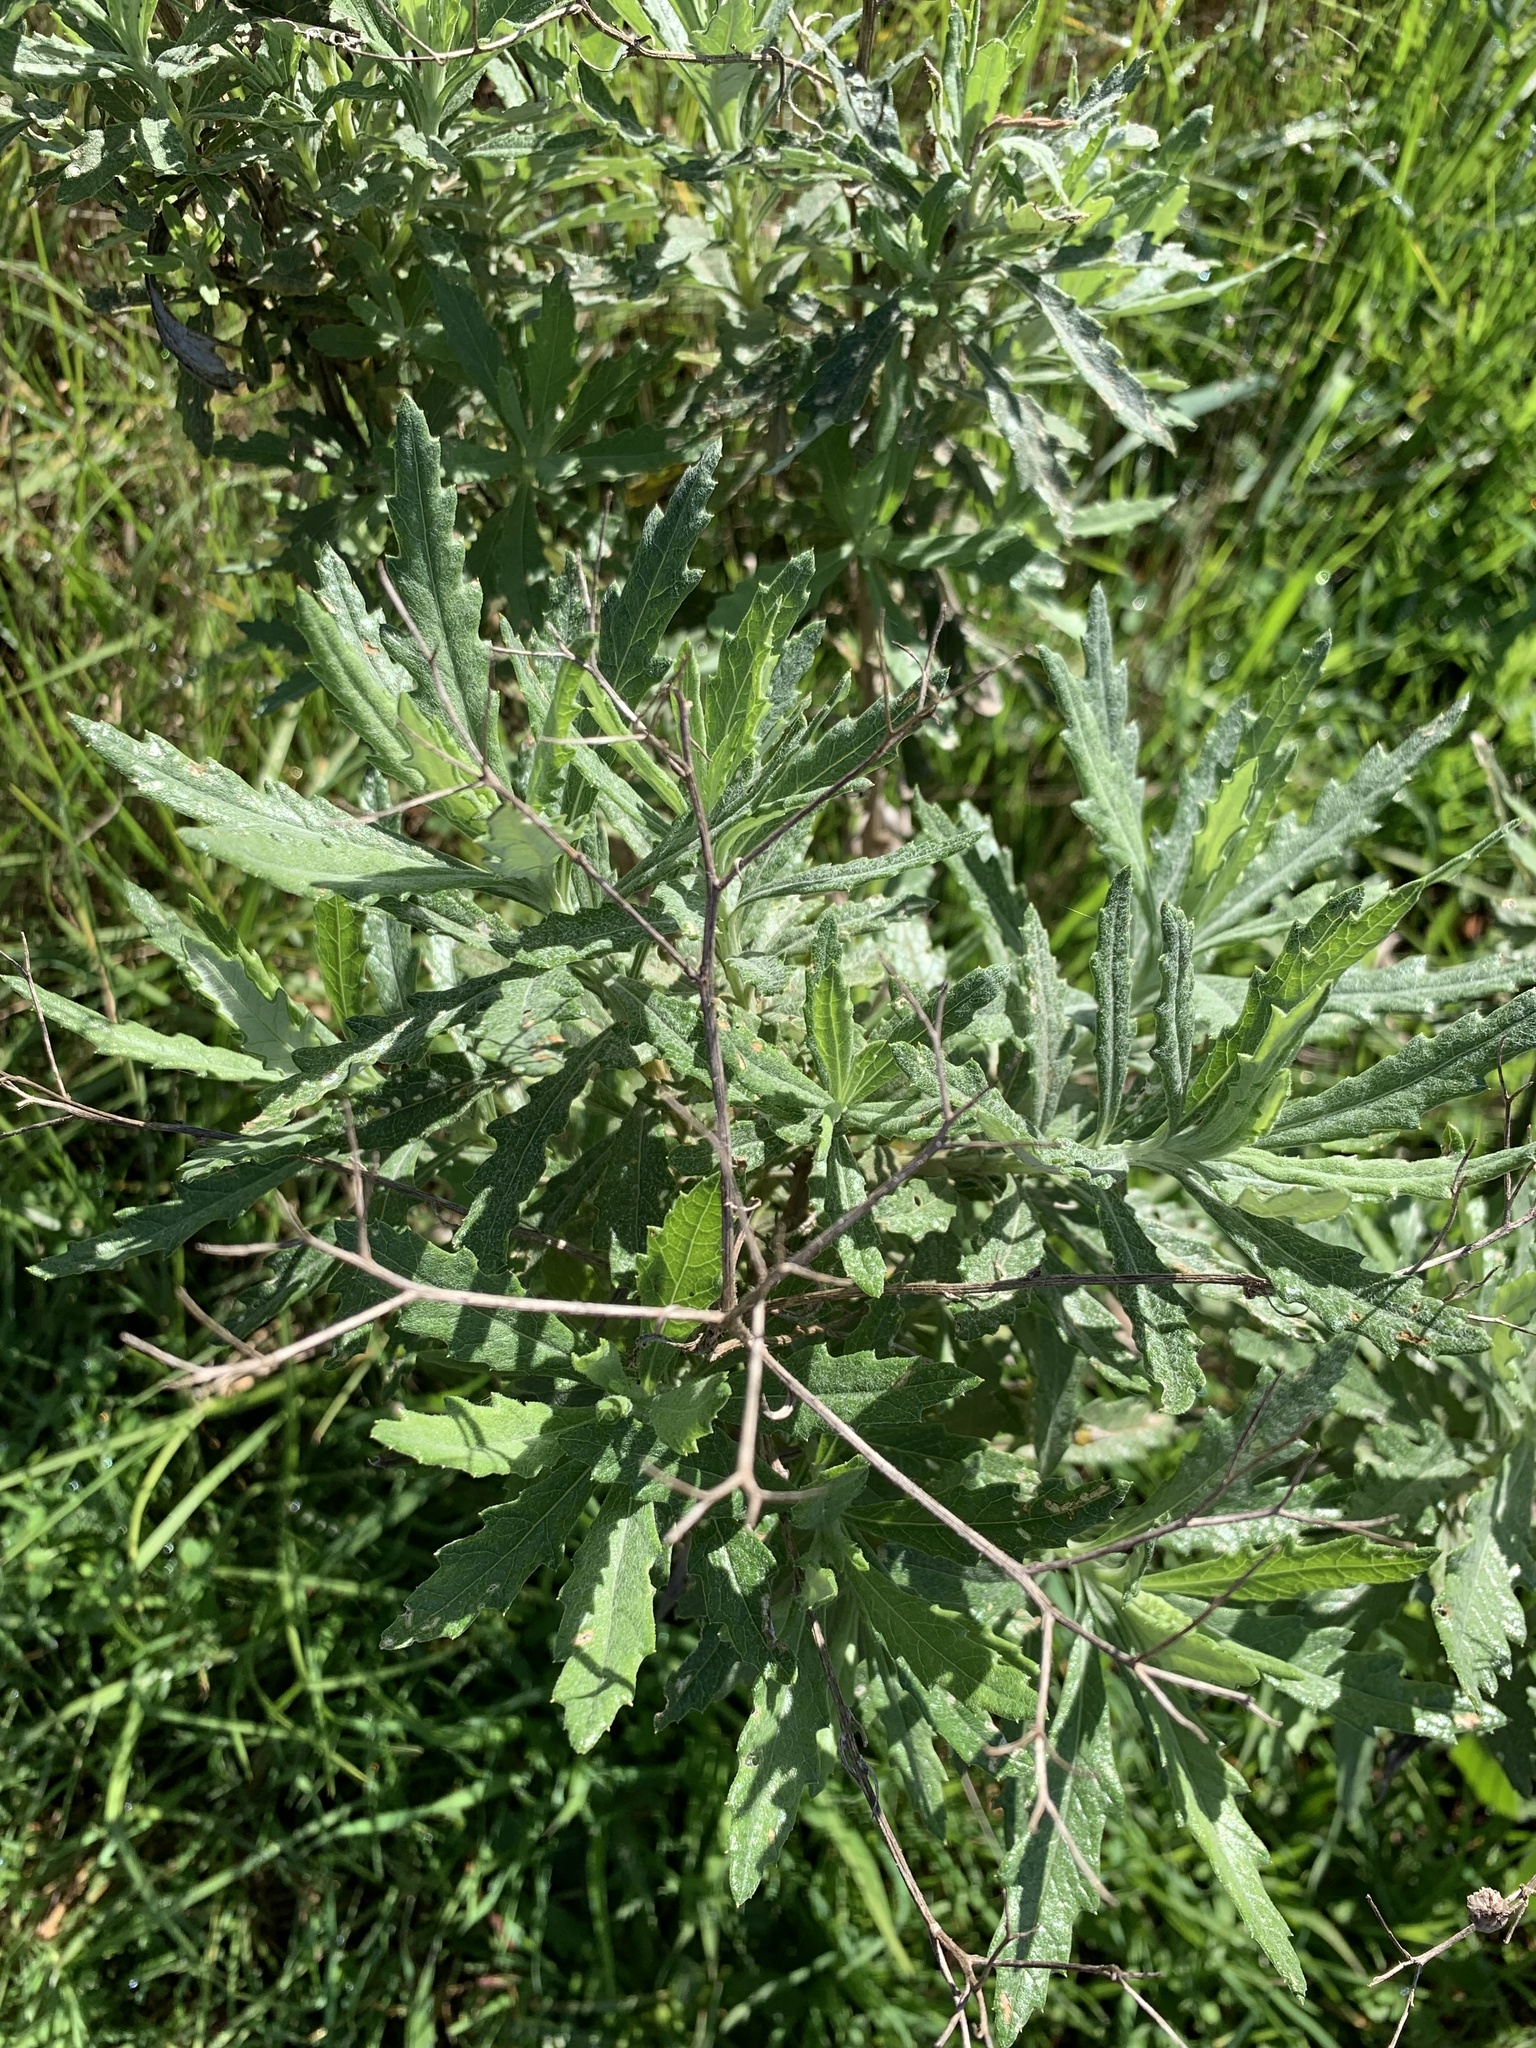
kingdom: Plantae
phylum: Tracheophyta
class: Magnoliopsida
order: Asterales
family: Asteraceae
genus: Senecio
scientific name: Senecio pterophorus
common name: Shoddy ragwort
